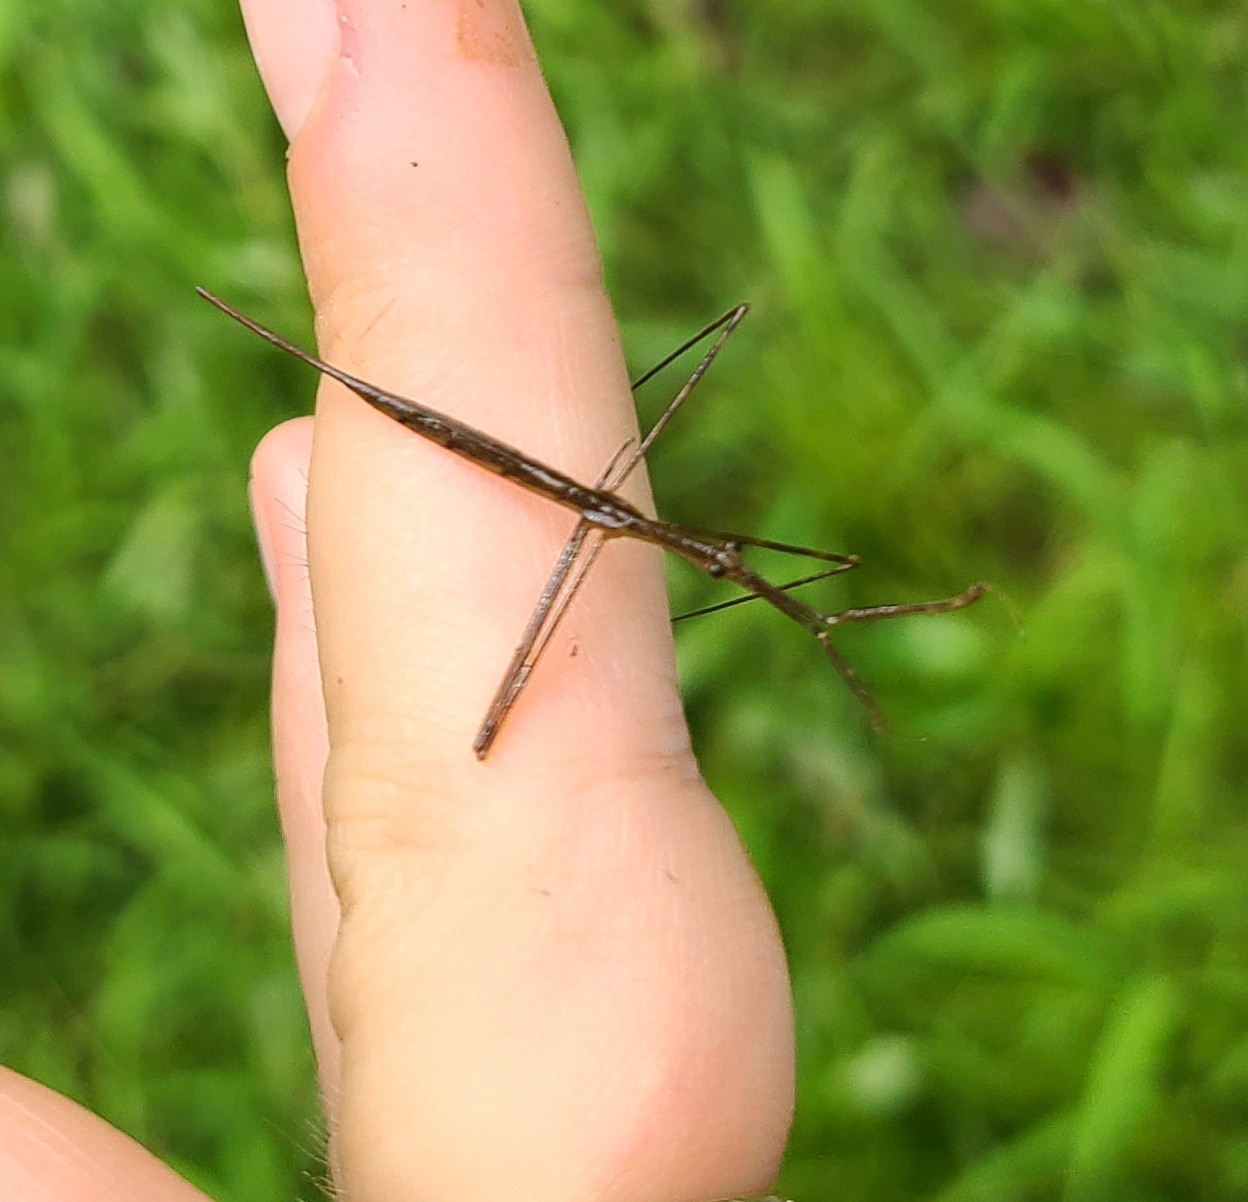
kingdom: Animalia
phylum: Arthropoda
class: Insecta
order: Hemiptera
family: Nepidae
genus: Ranatra
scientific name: Ranatra
